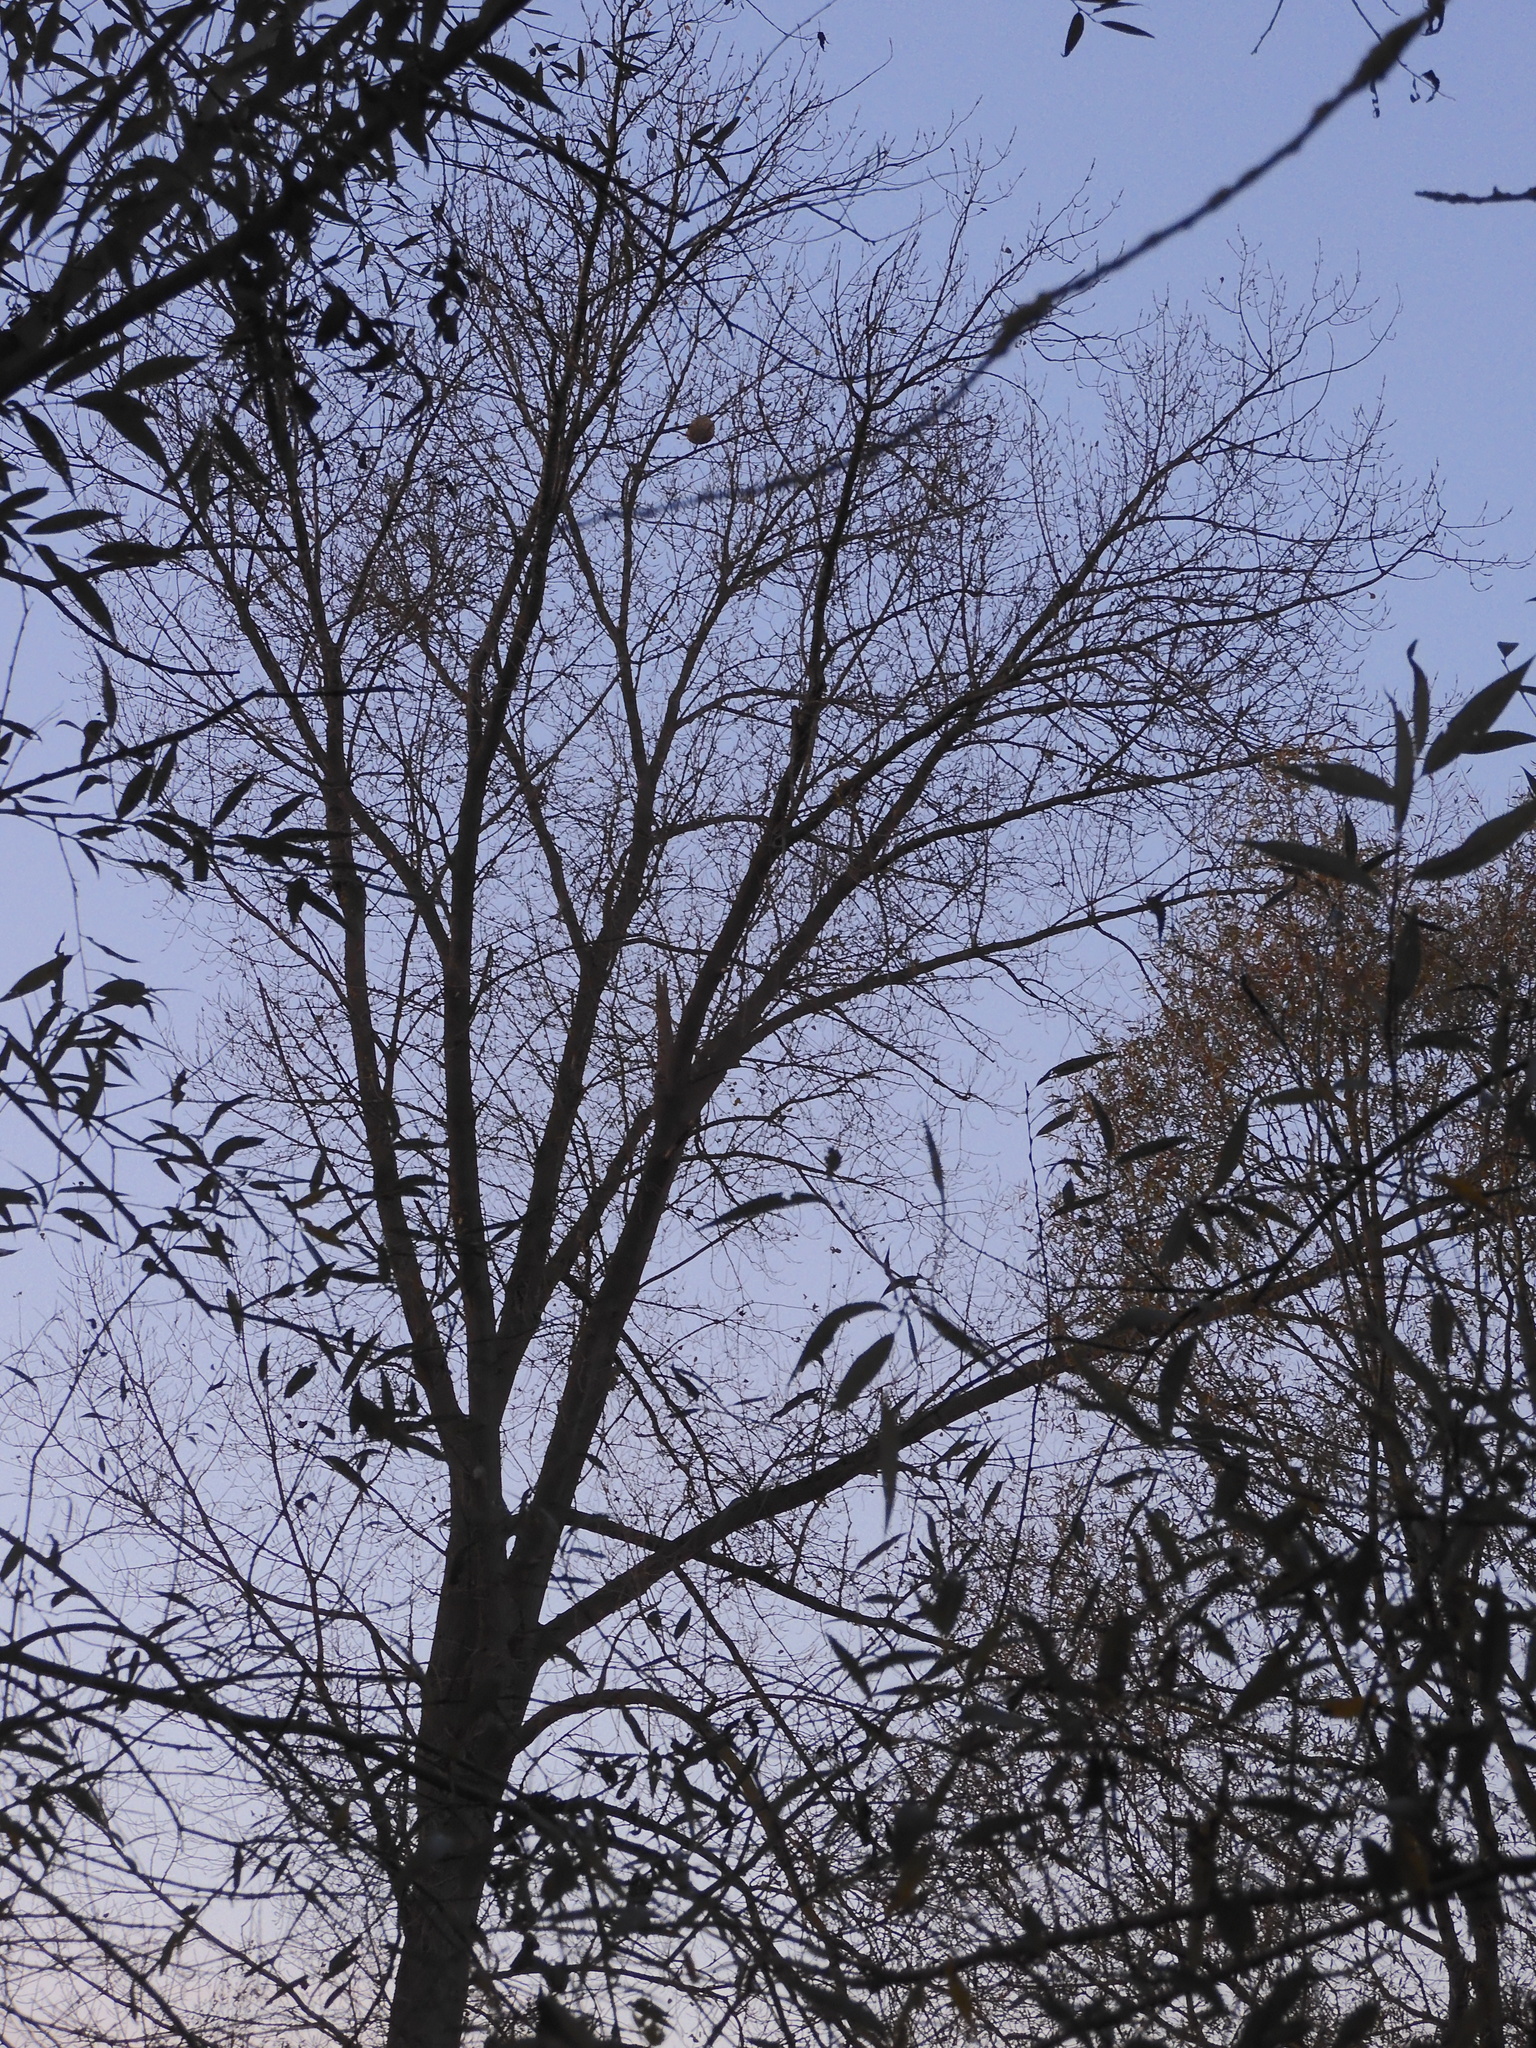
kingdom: Animalia
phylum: Arthropoda
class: Insecta
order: Hymenoptera
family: Vespidae
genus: Vespa
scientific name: Vespa velutina
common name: Asian hornet
